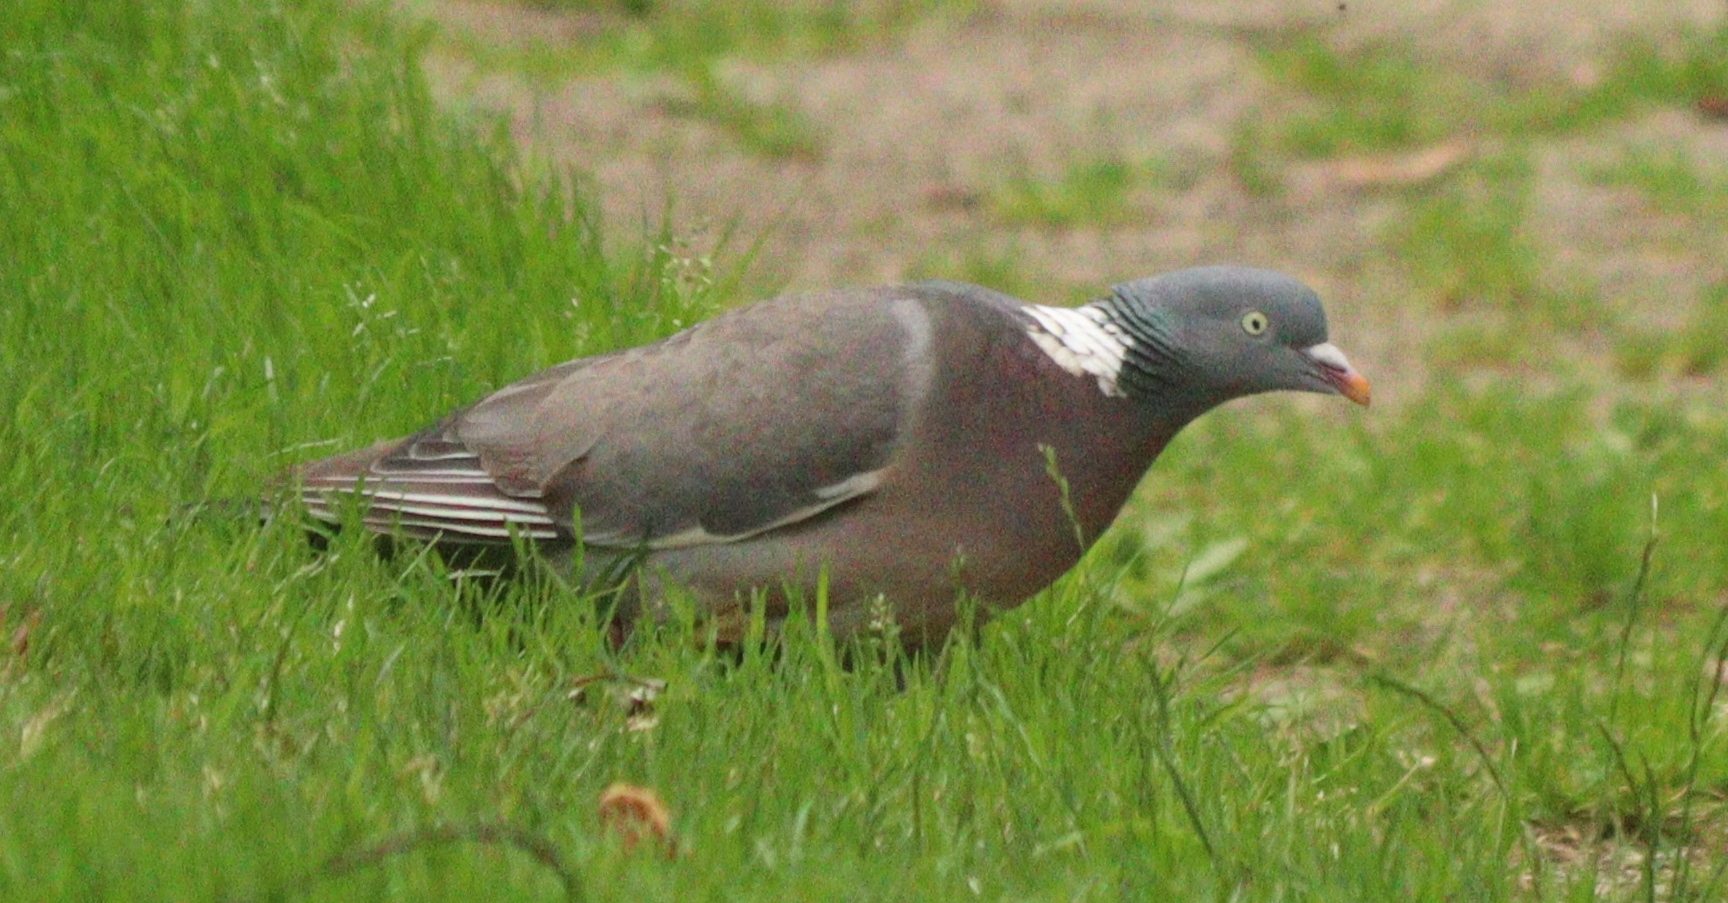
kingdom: Animalia
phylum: Chordata
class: Aves
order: Columbiformes
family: Columbidae
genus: Columba
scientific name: Columba palumbus
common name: Common wood pigeon
